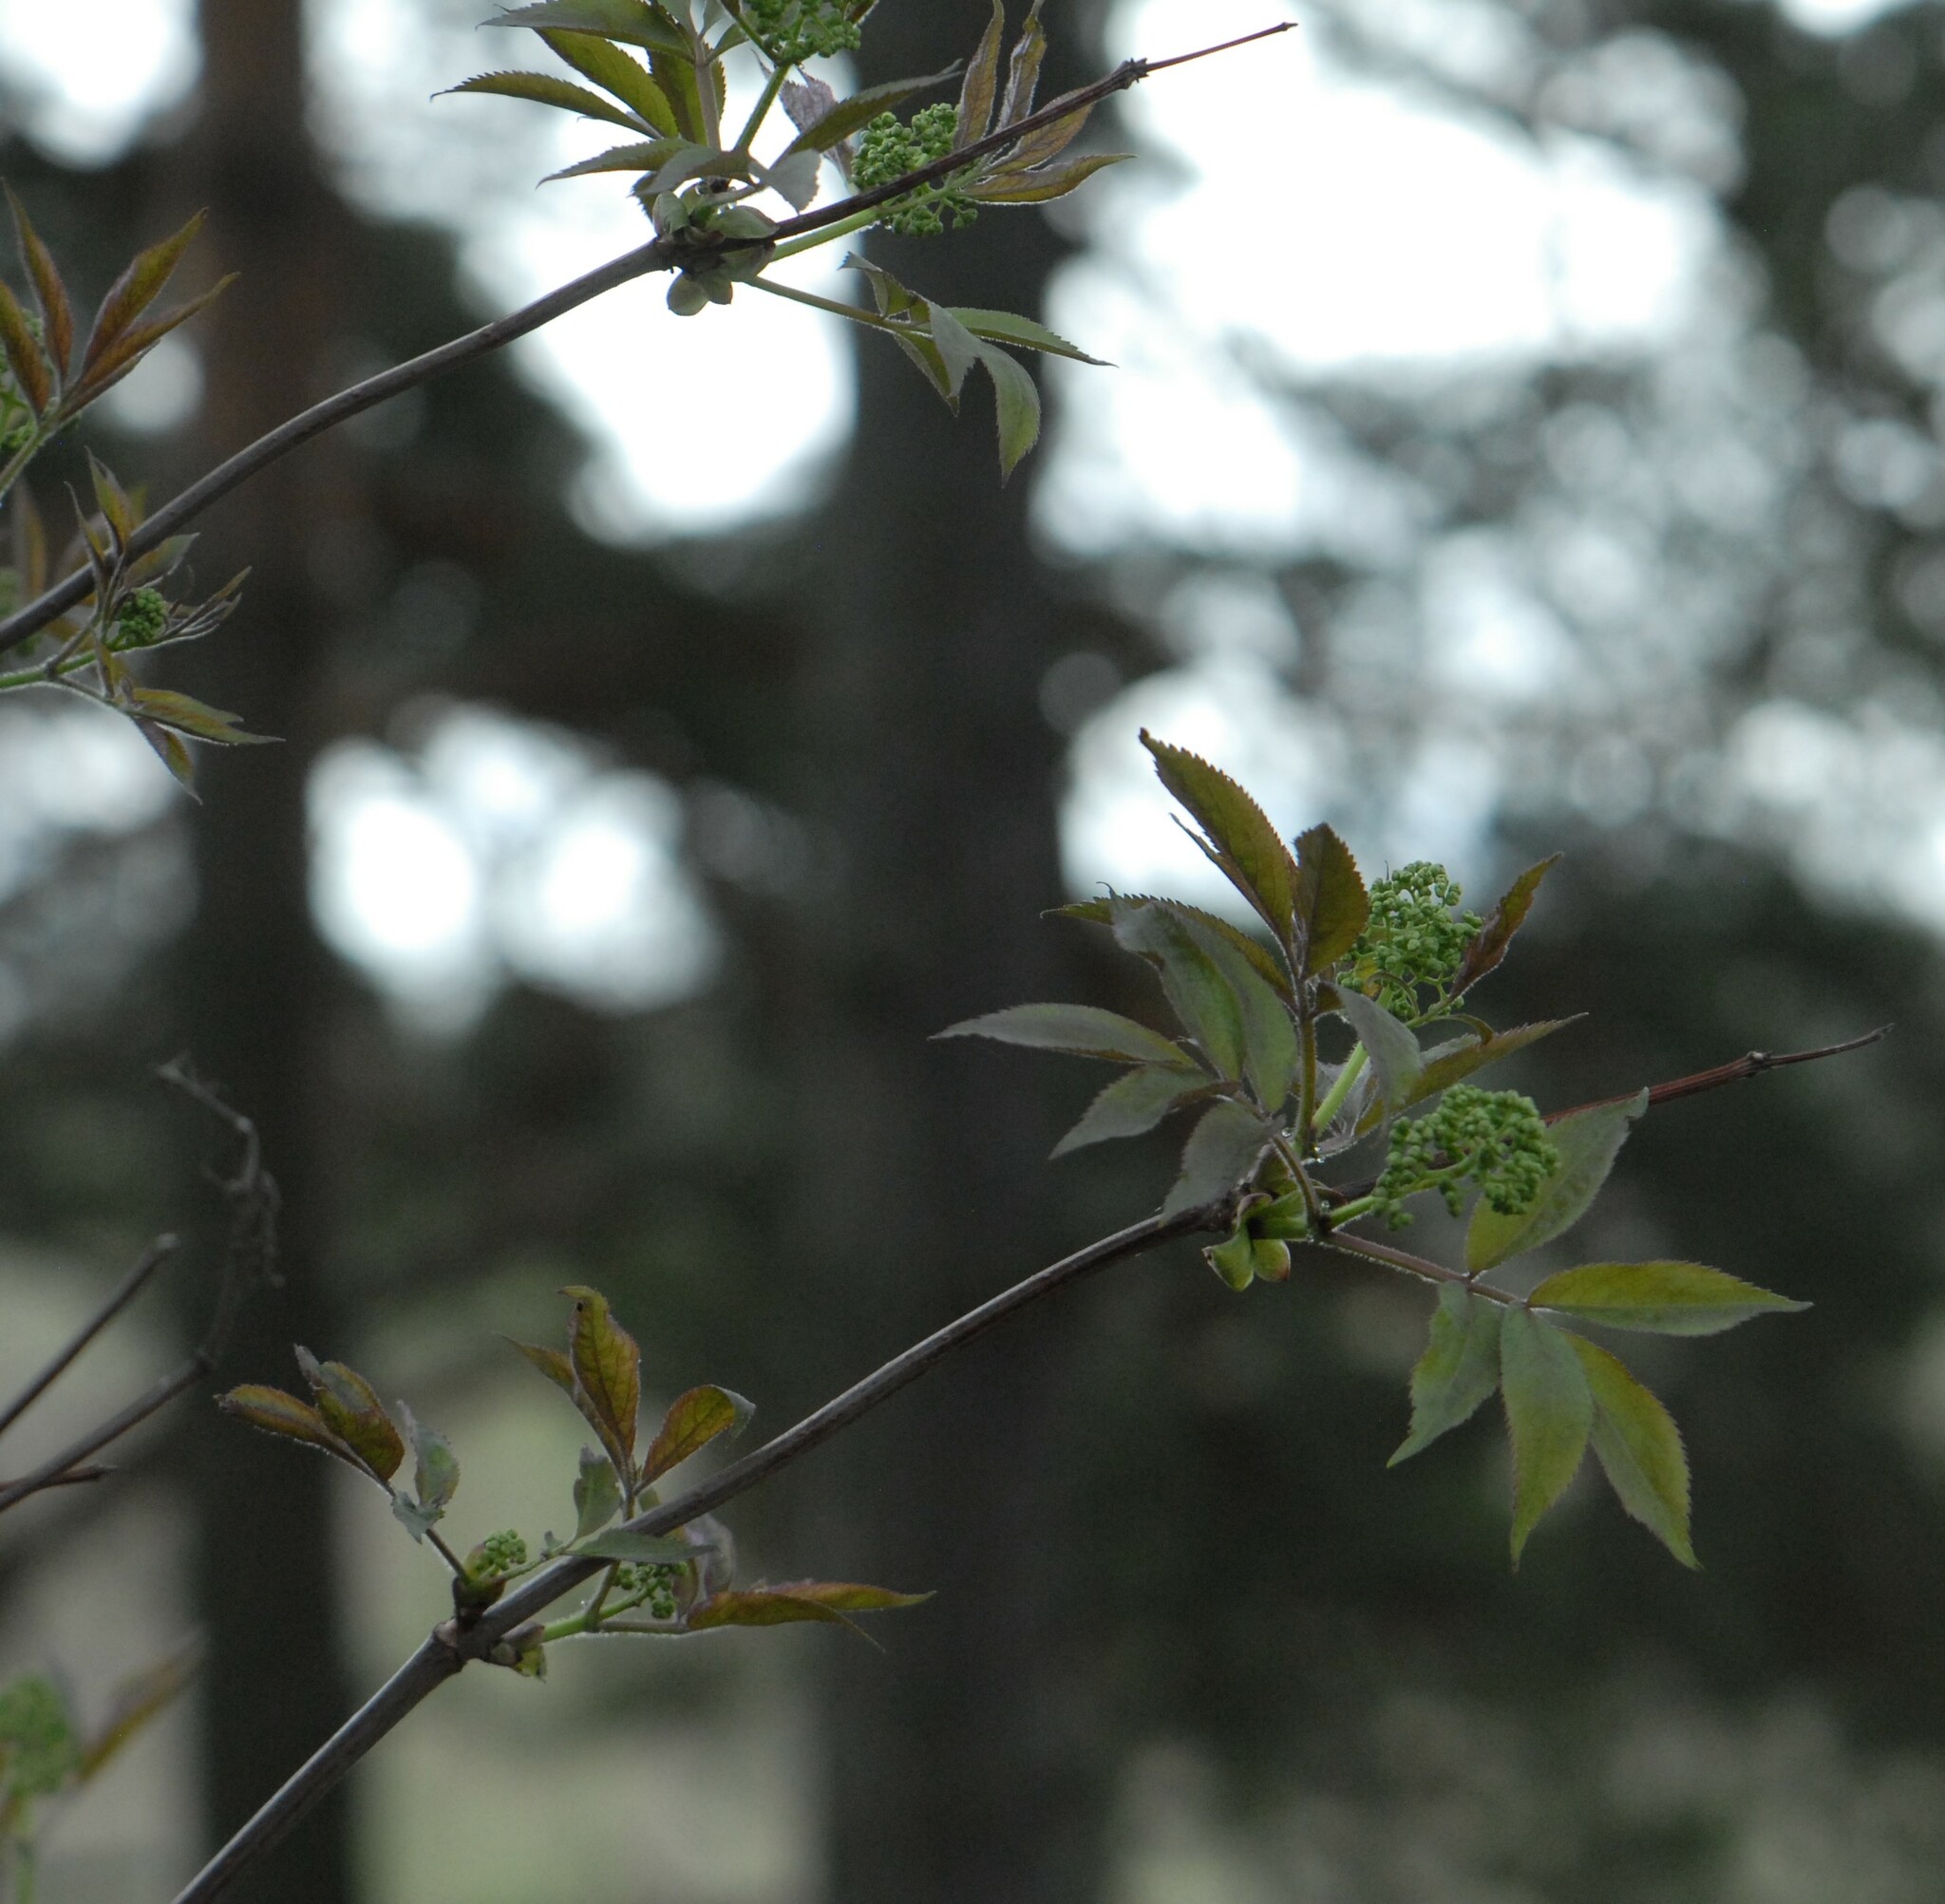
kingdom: Plantae
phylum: Tracheophyta
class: Magnoliopsida
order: Dipsacales
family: Viburnaceae
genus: Sambucus
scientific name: Sambucus racemosa
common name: Red-berried elder
